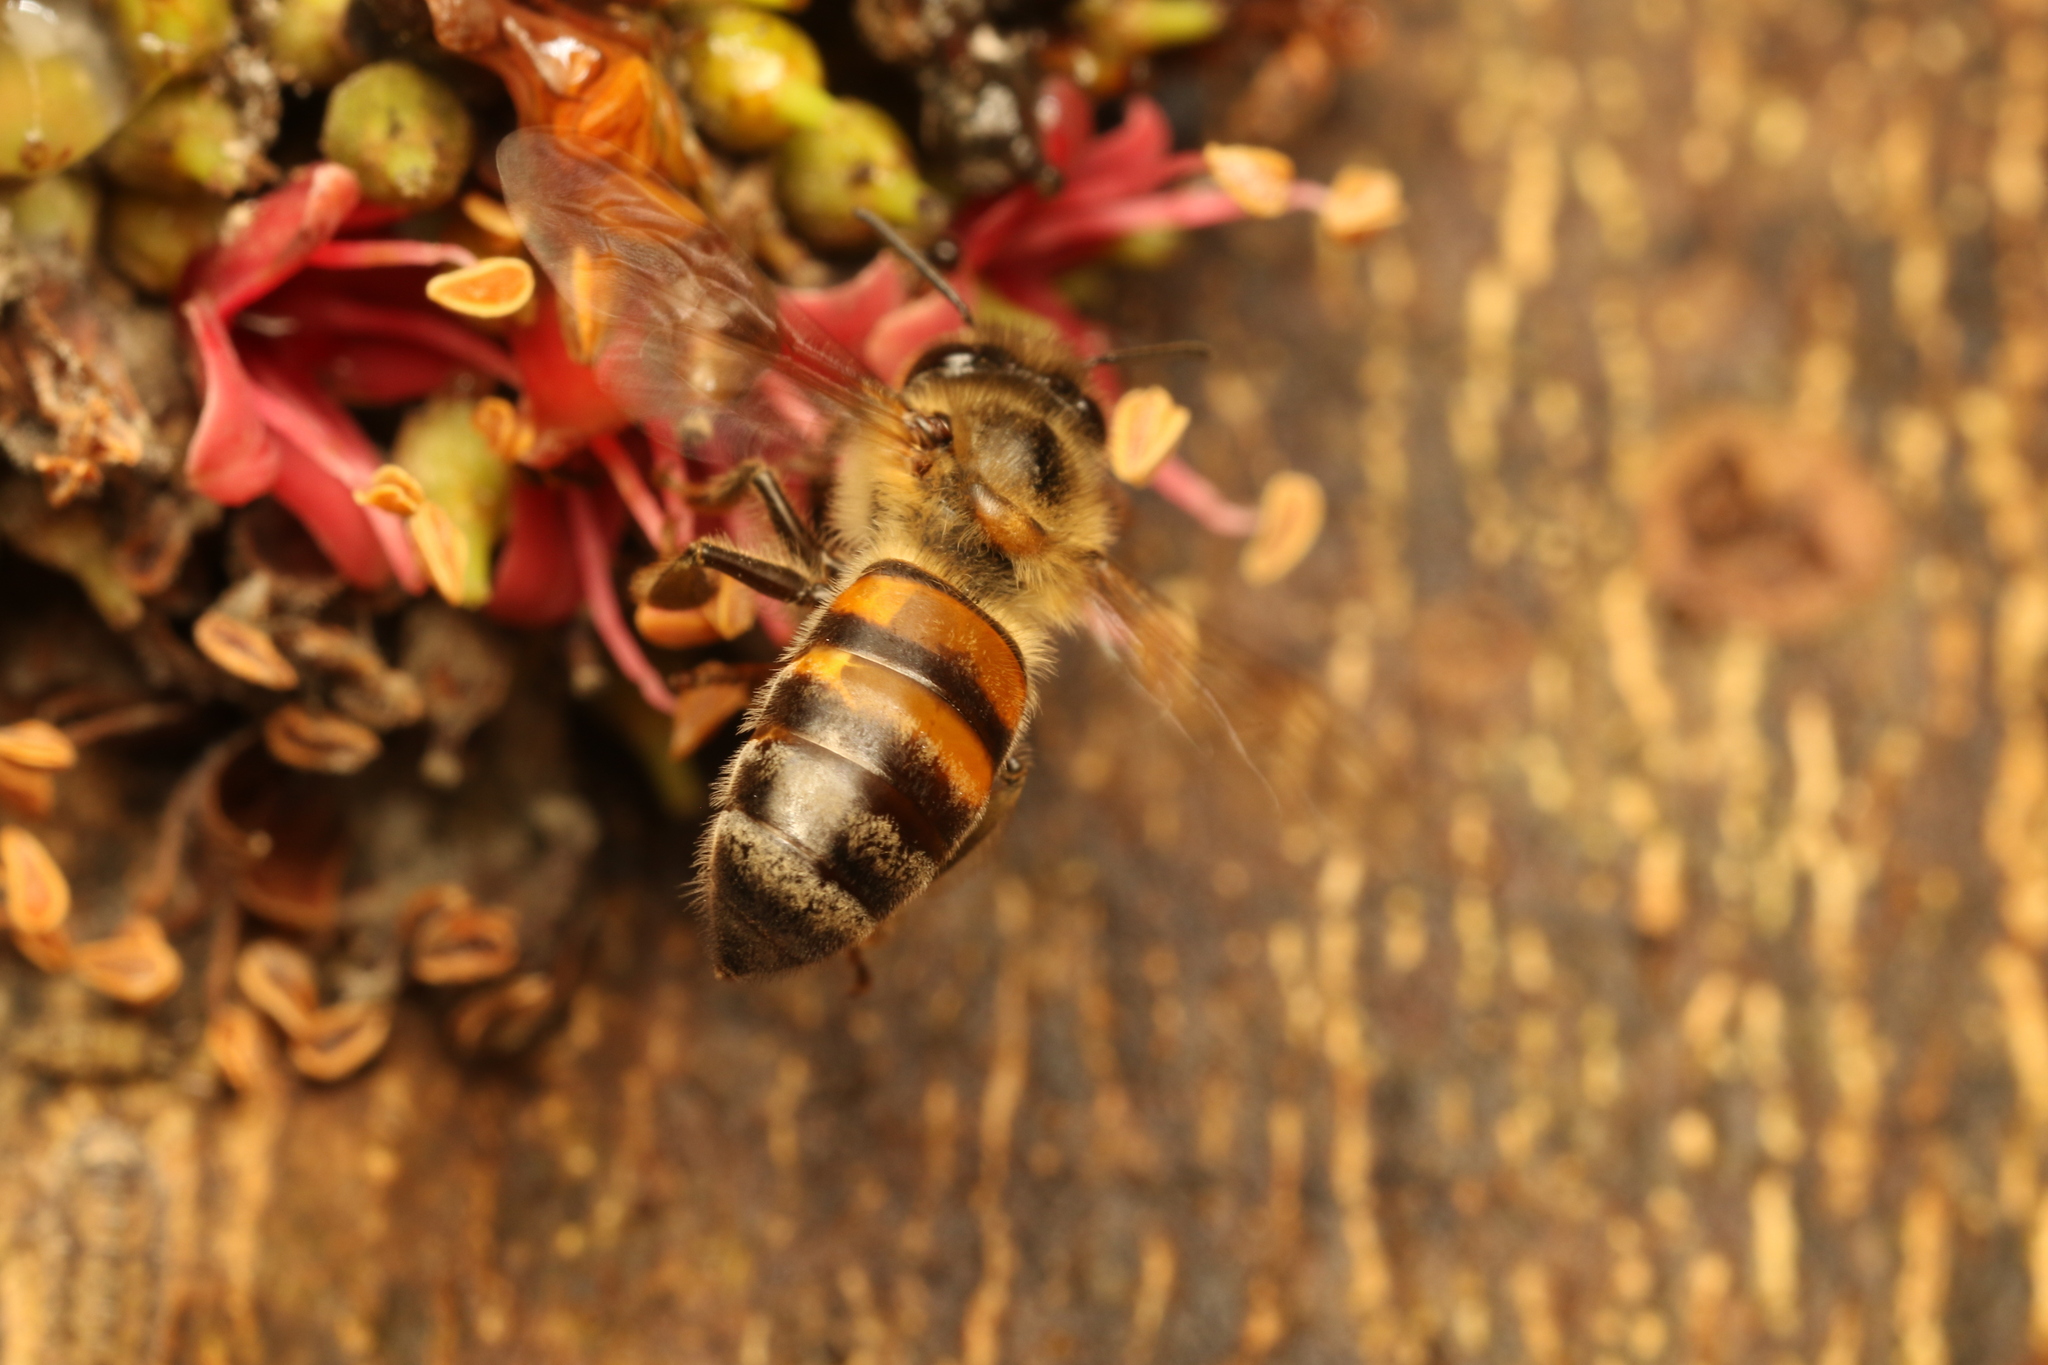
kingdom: Animalia
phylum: Arthropoda
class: Insecta
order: Hymenoptera
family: Apidae
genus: Apis
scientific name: Apis mellifera
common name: Honey bee
